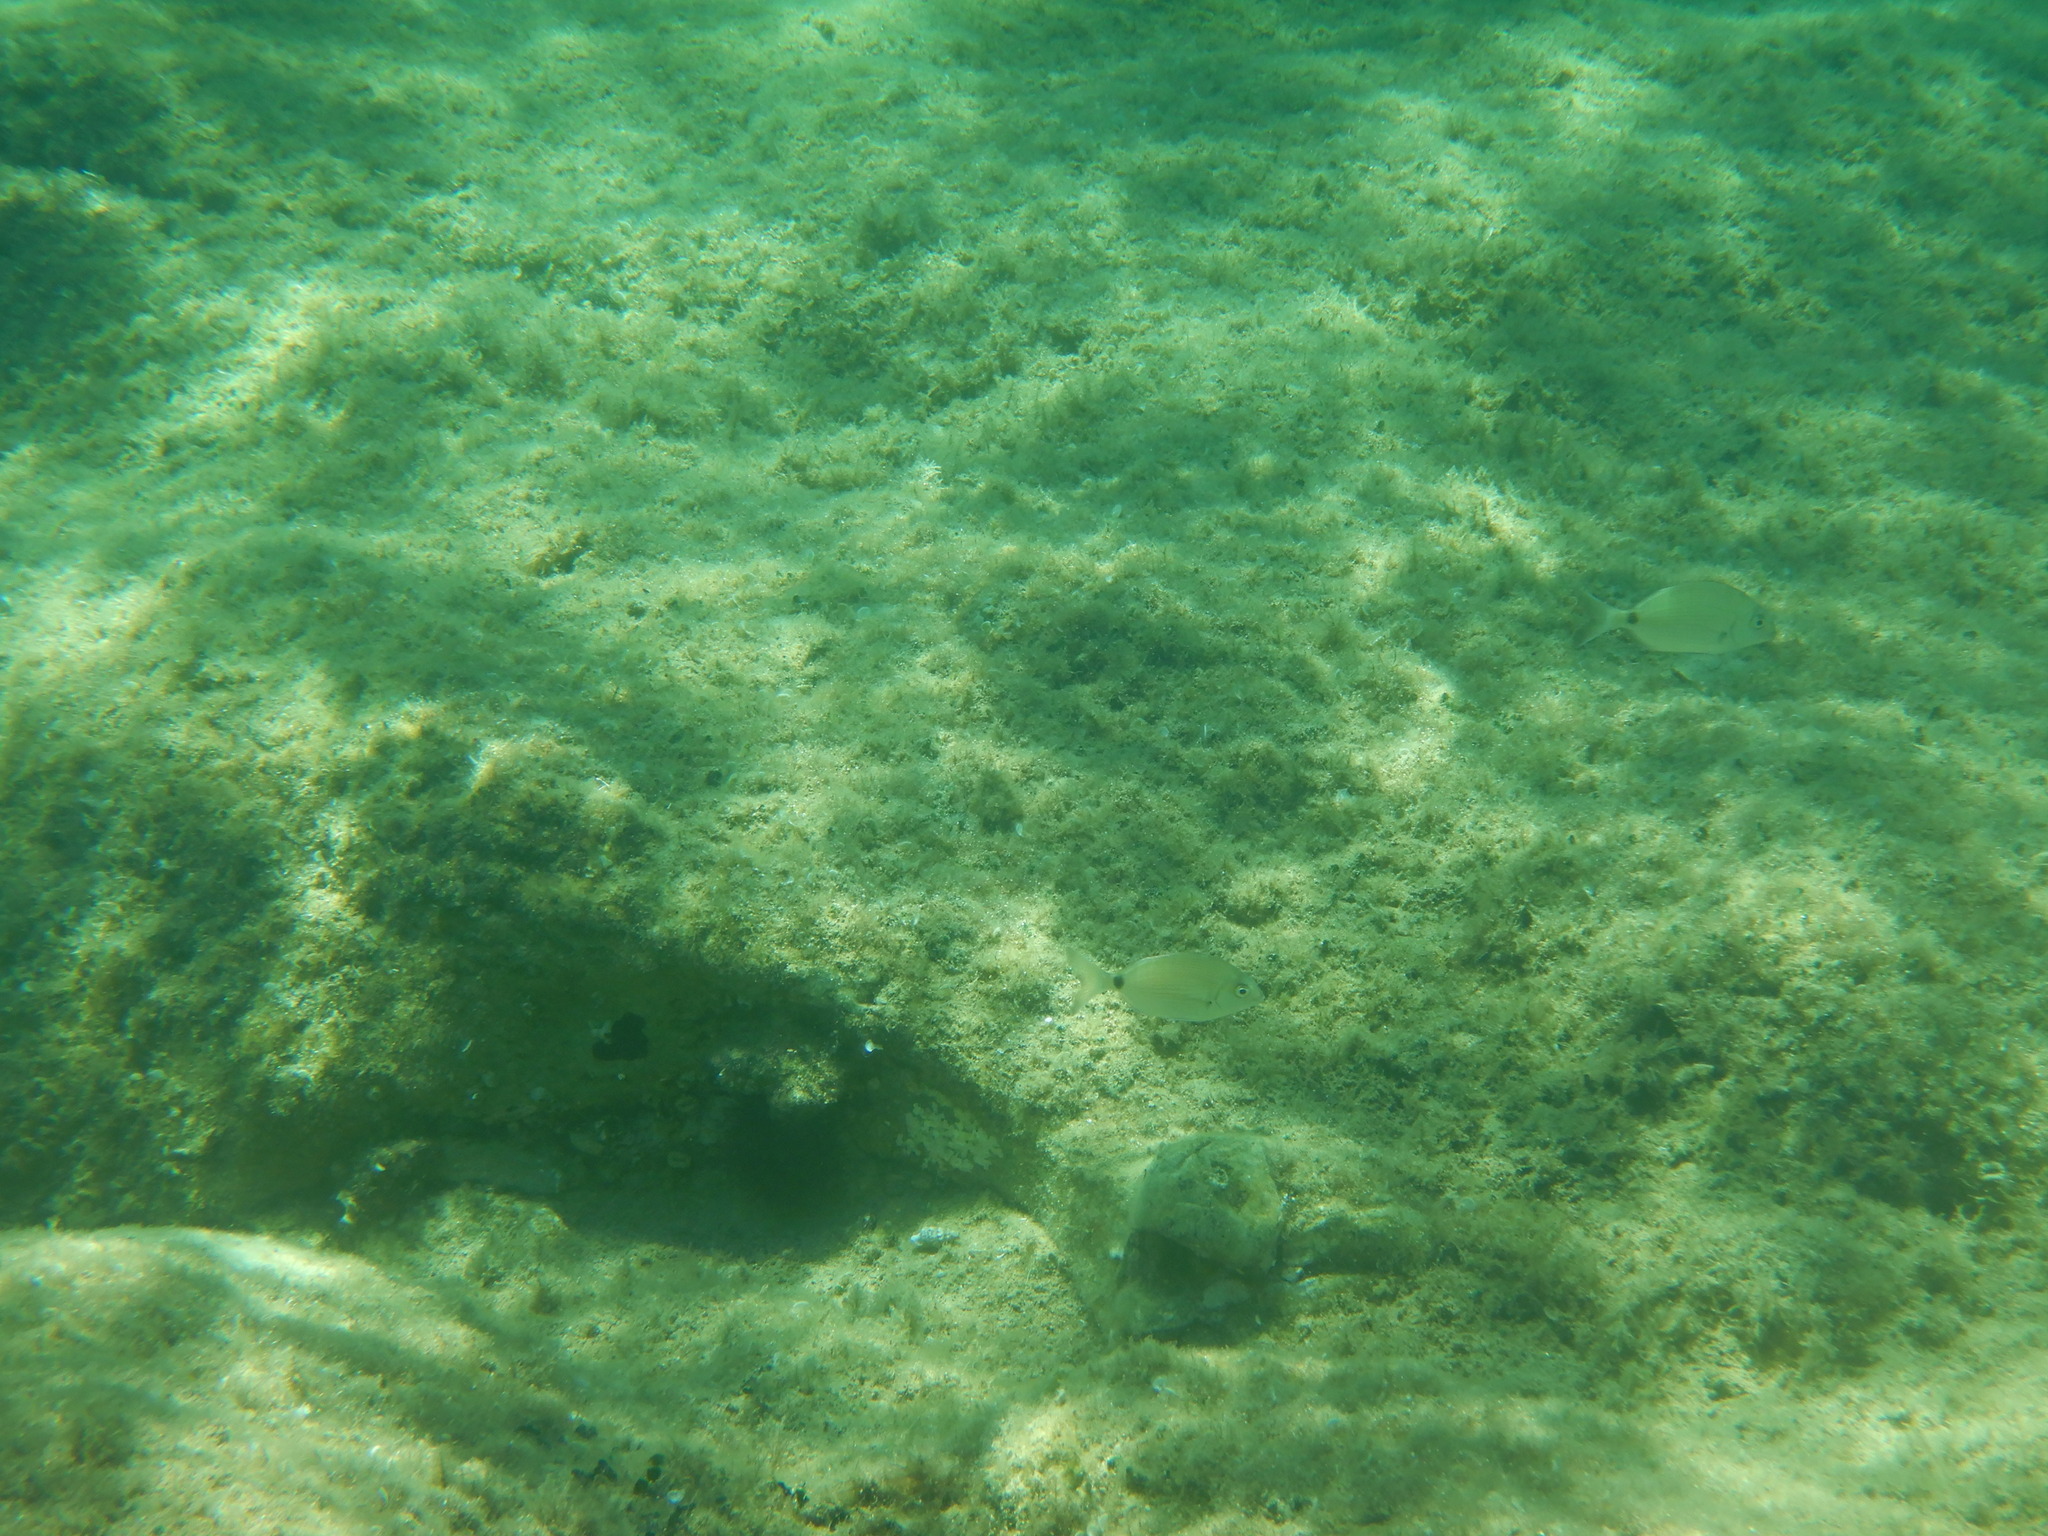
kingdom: Animalia
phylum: Chordata
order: Perciformes
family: Sparidae
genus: Diplodus
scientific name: Diplodus sargus
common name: White seabream
